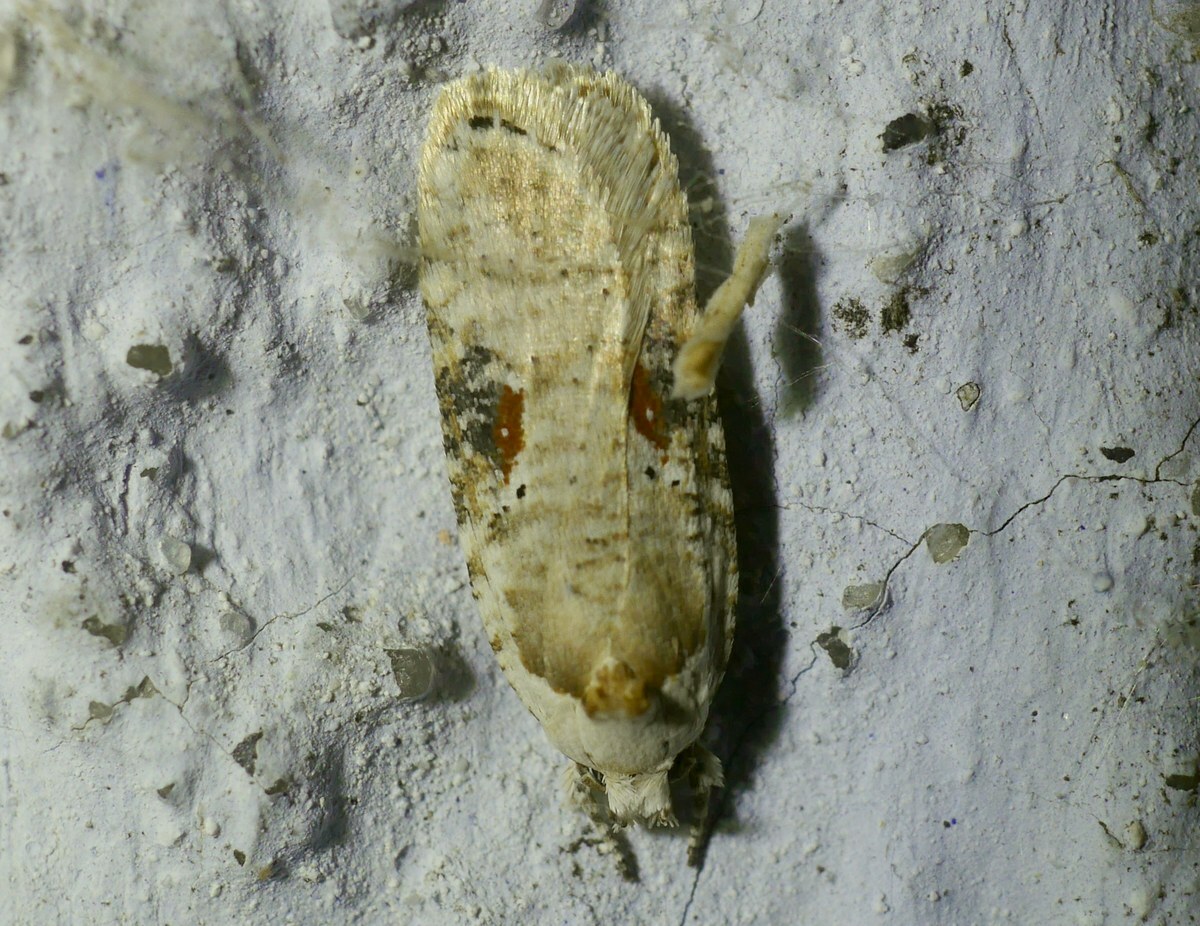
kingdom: Animalia
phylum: Arthropoda
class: Insecta
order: Lepidoptera
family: Depressariidae
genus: Agonopterix
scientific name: Agonopterix alstroemeriana
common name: Moth
